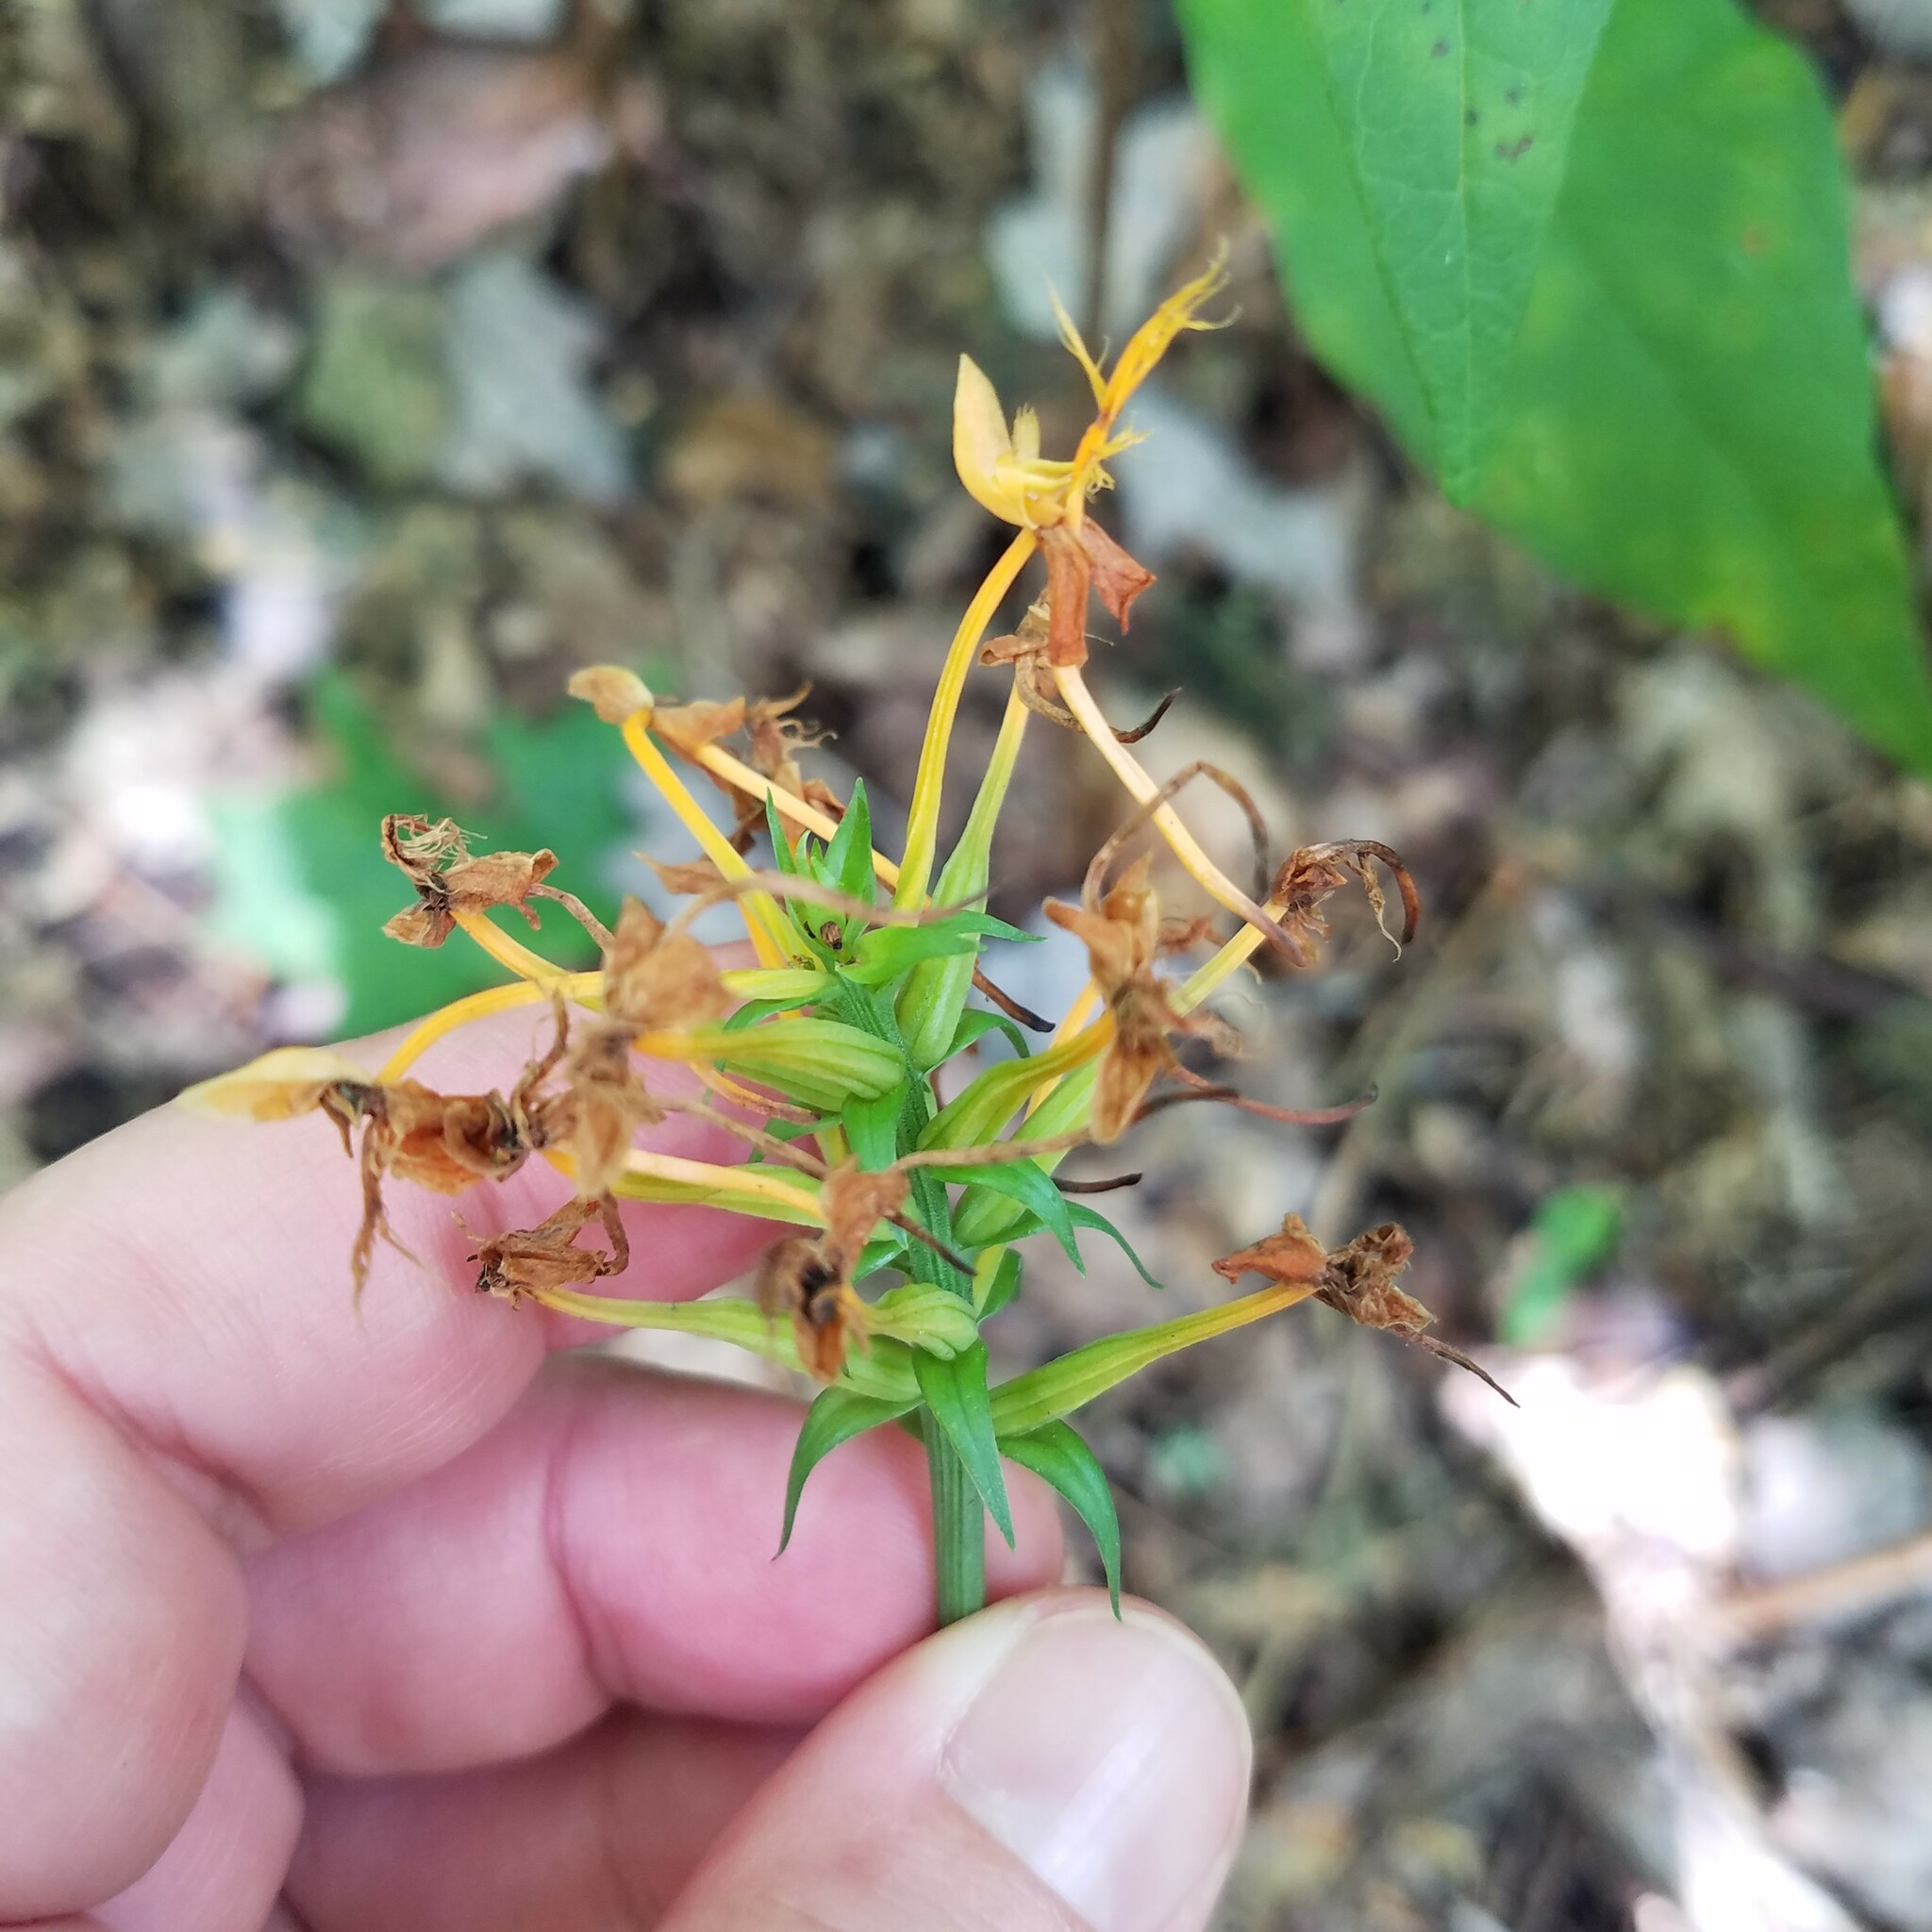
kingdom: Plantae
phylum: Tracheophyta
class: Liliopsida
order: Asparagales
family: Orchidaceae
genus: Platanthera
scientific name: Platanthera ciliaris
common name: Yellow fringed orchid
